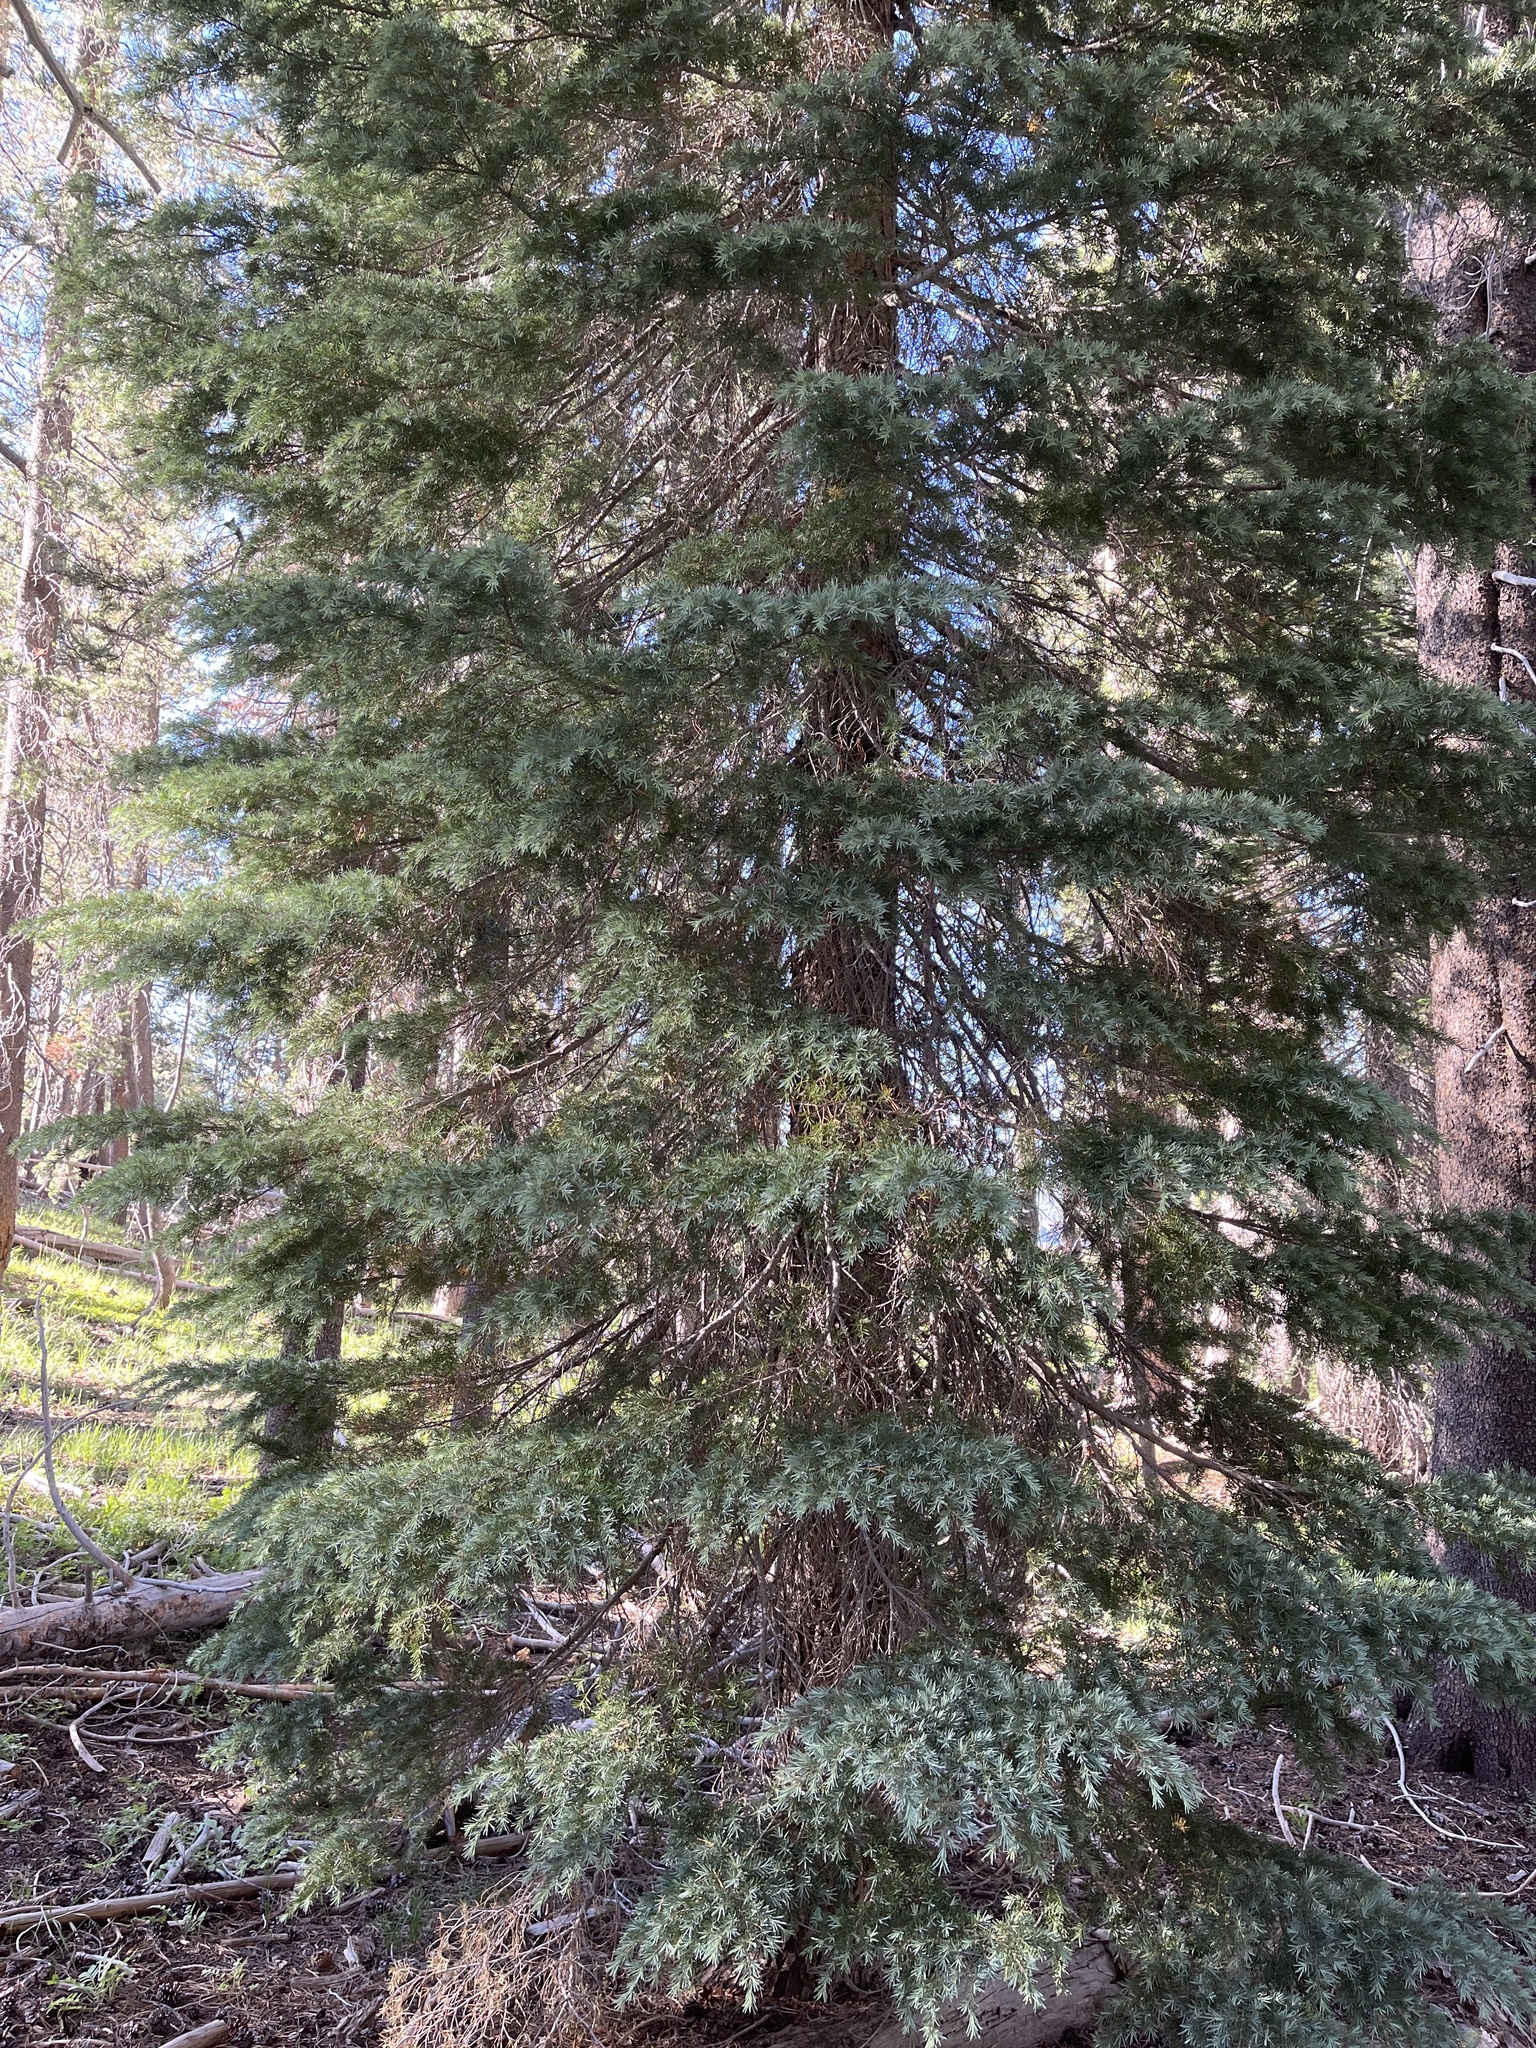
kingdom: Plantae
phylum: Tracheophyta
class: Pinopsida
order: Pinales
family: Pinaceae
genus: Tsuga
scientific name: Tsuga mertensiana
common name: Mountain hemlock
